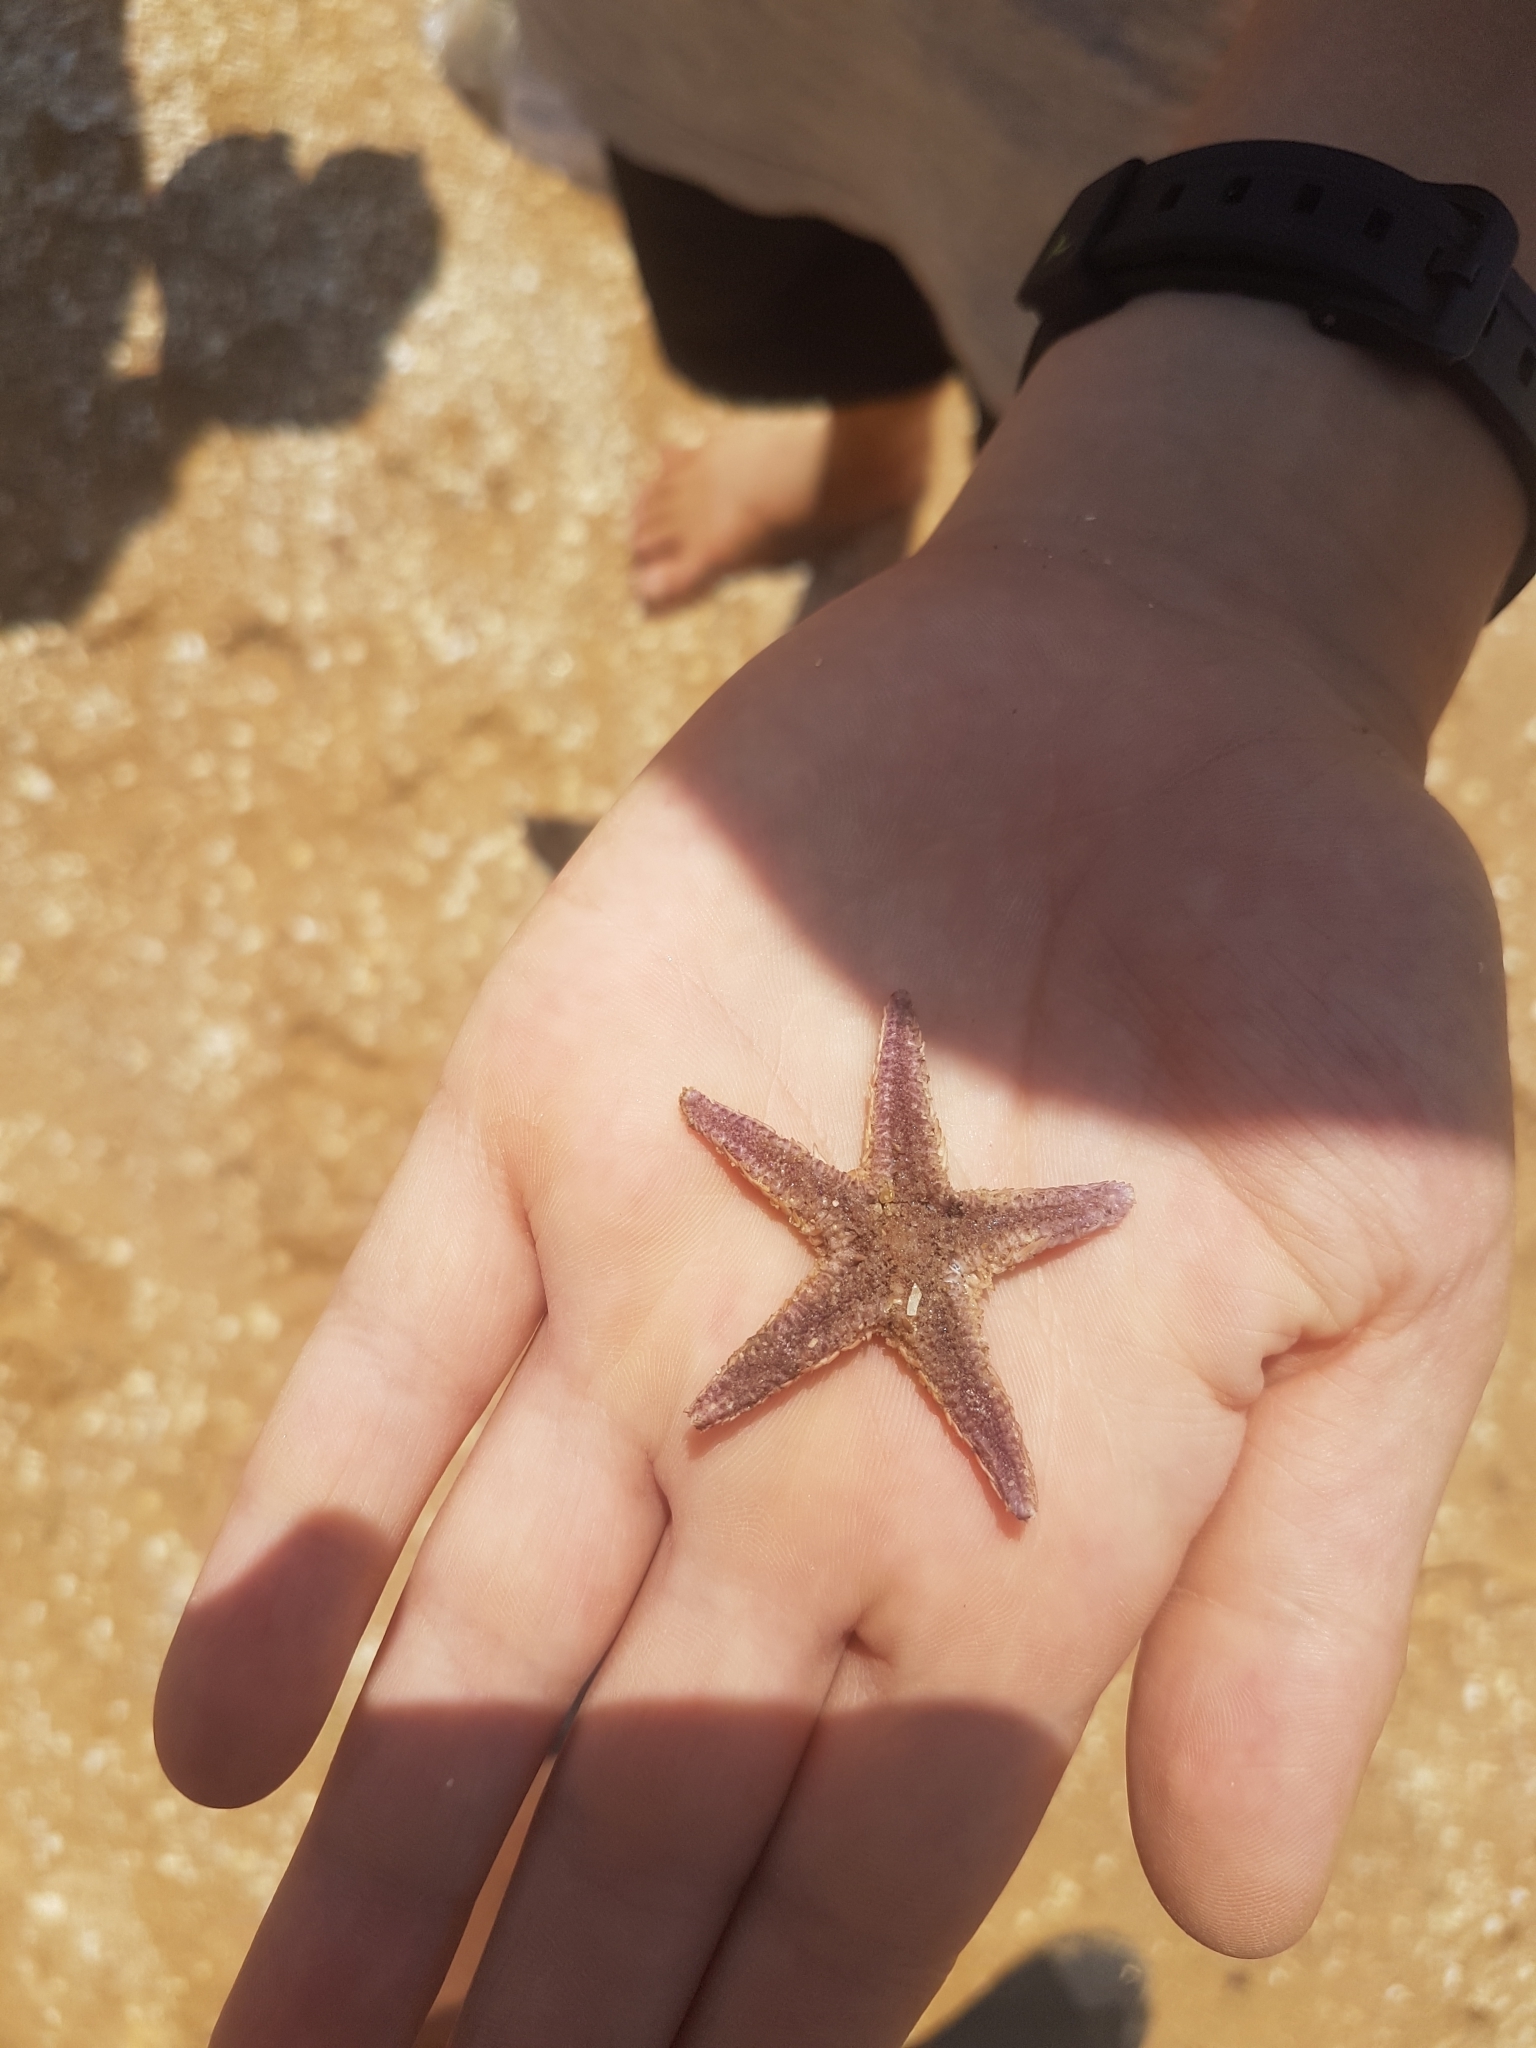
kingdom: Animalia
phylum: Echinodermata
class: Asteroidea
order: Paxillosida
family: Astropectinidae
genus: Astropecten
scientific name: Astropecten
